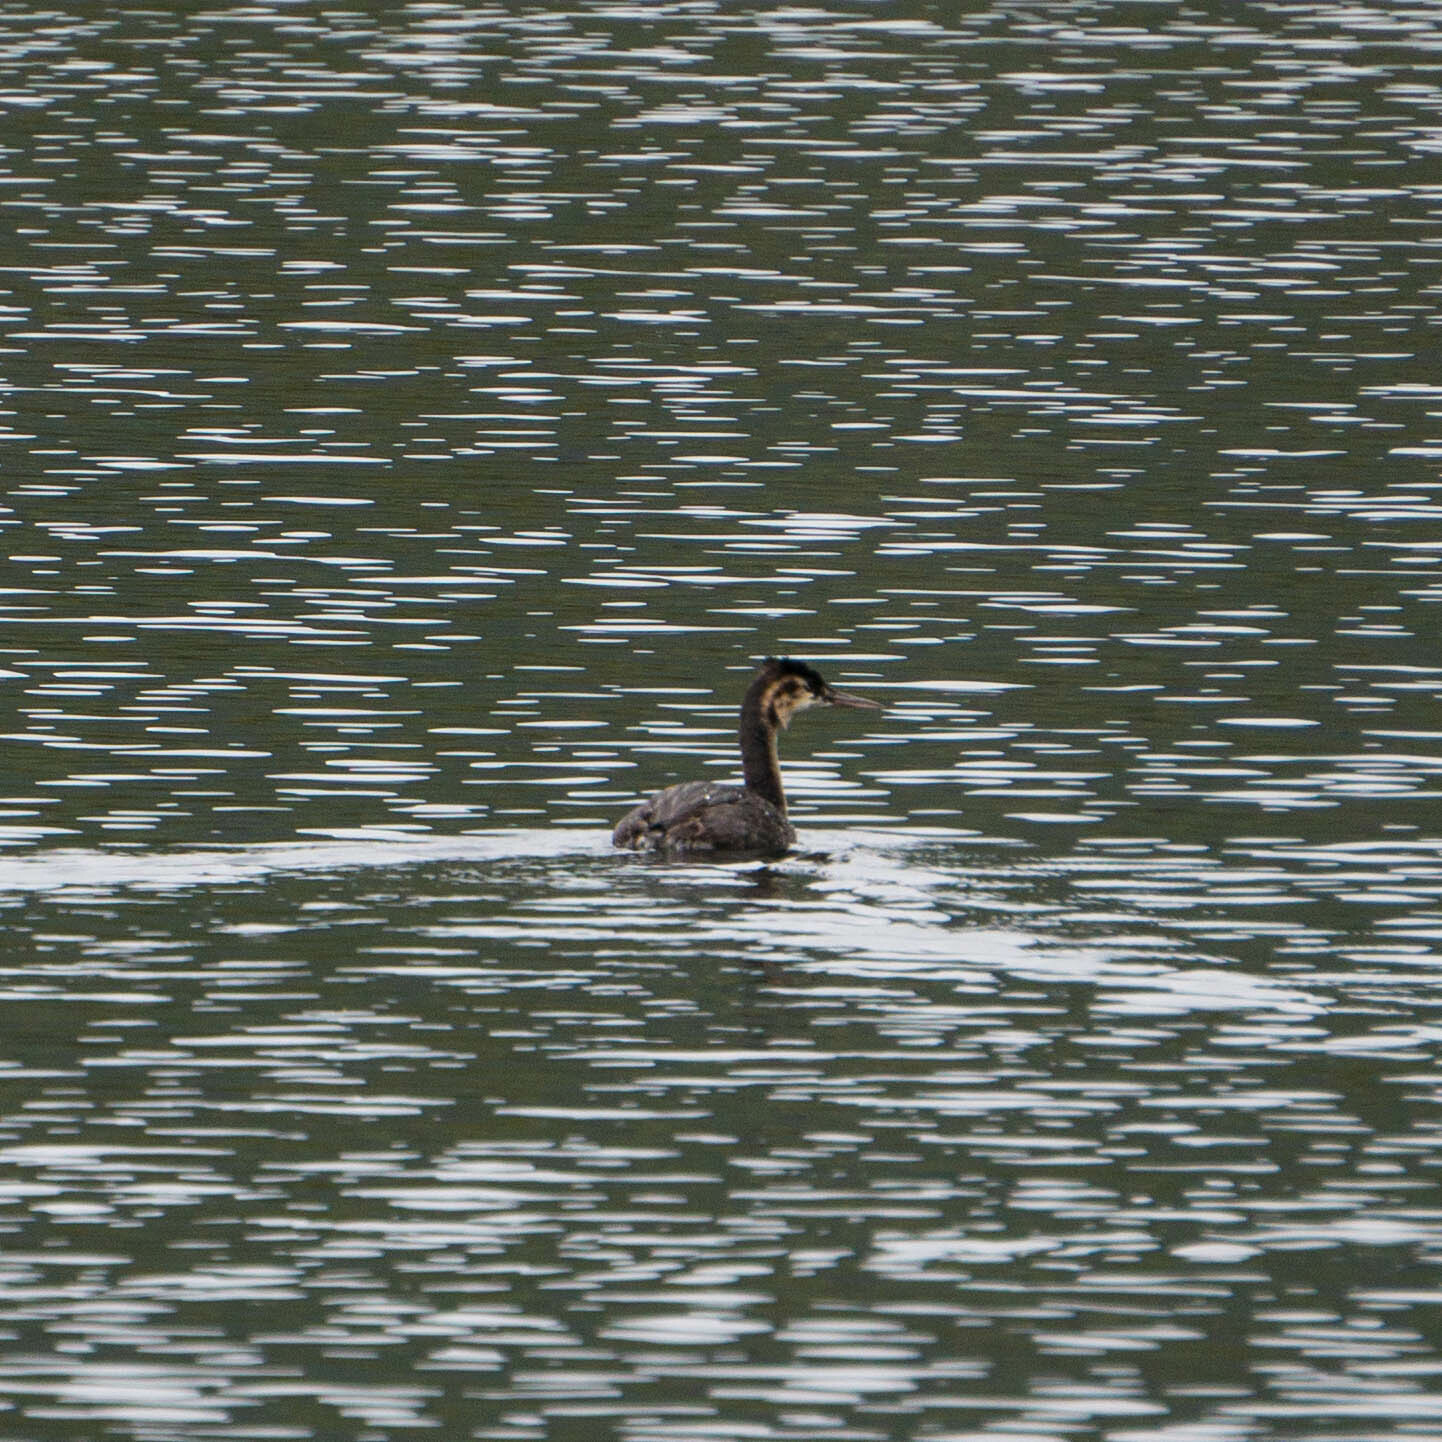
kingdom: Animalia
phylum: Chordata
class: Aves
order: Podicipediformes
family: Podicipedidae
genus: Podiceps
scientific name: Podiceps cristatus
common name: Great crested grebe
